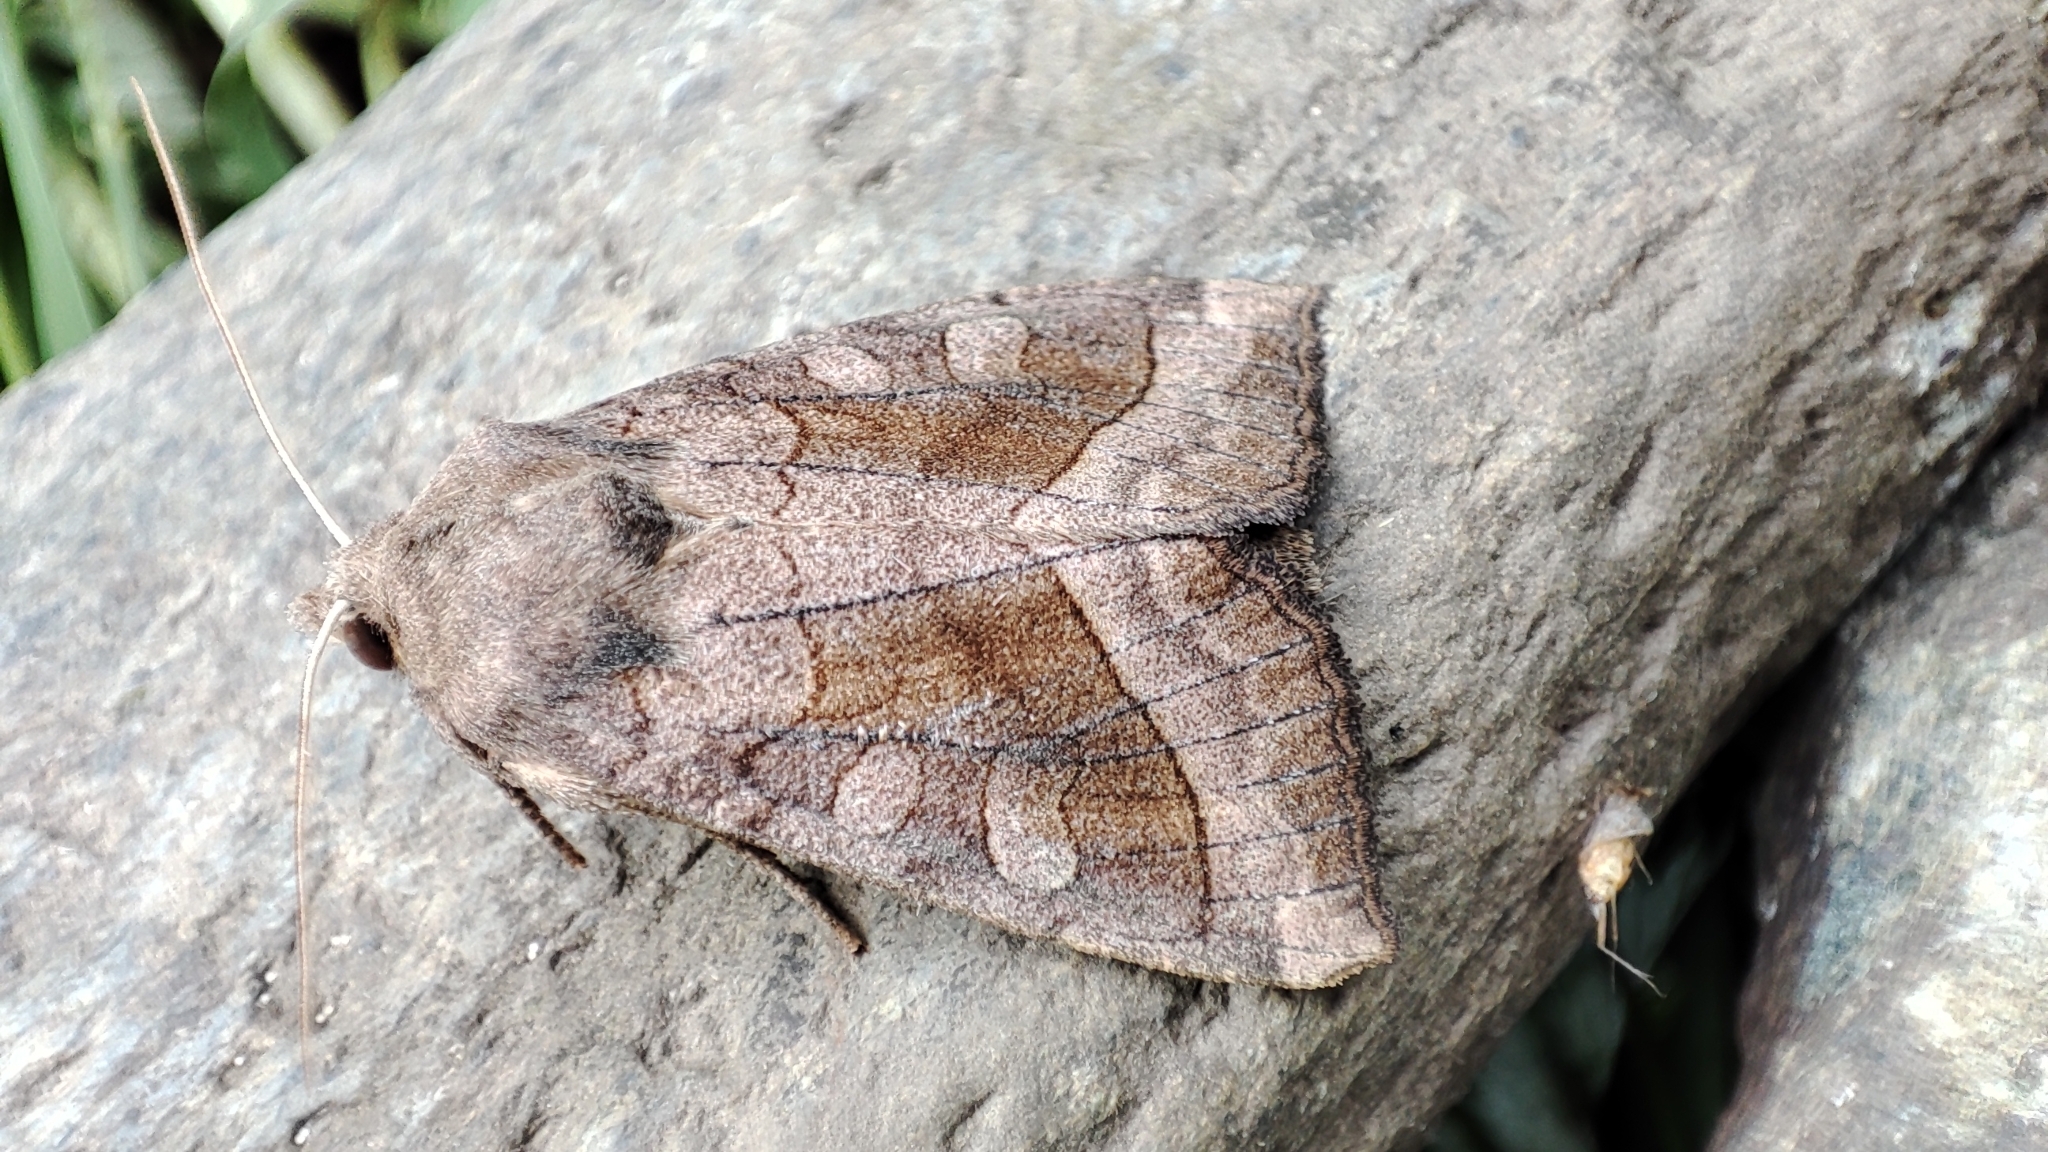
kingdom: Animalia
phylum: Arthropoda
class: Insecta
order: Lepidoptera
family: Noctuidae
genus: Hydraecia
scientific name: Hydraecia petasitis
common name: Butterbur
